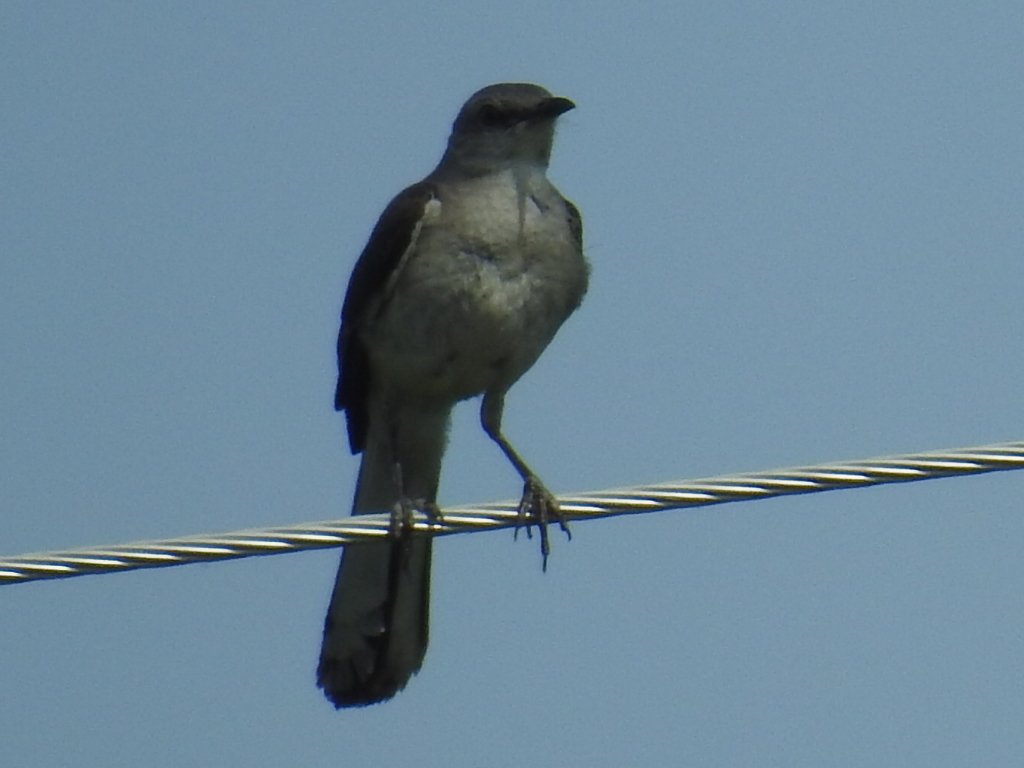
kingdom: Animalia
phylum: Chordata
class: Aves
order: Passeriformes
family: Mimidae
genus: Mimus
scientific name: Mimus polyglottos
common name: Northern mockingbird
